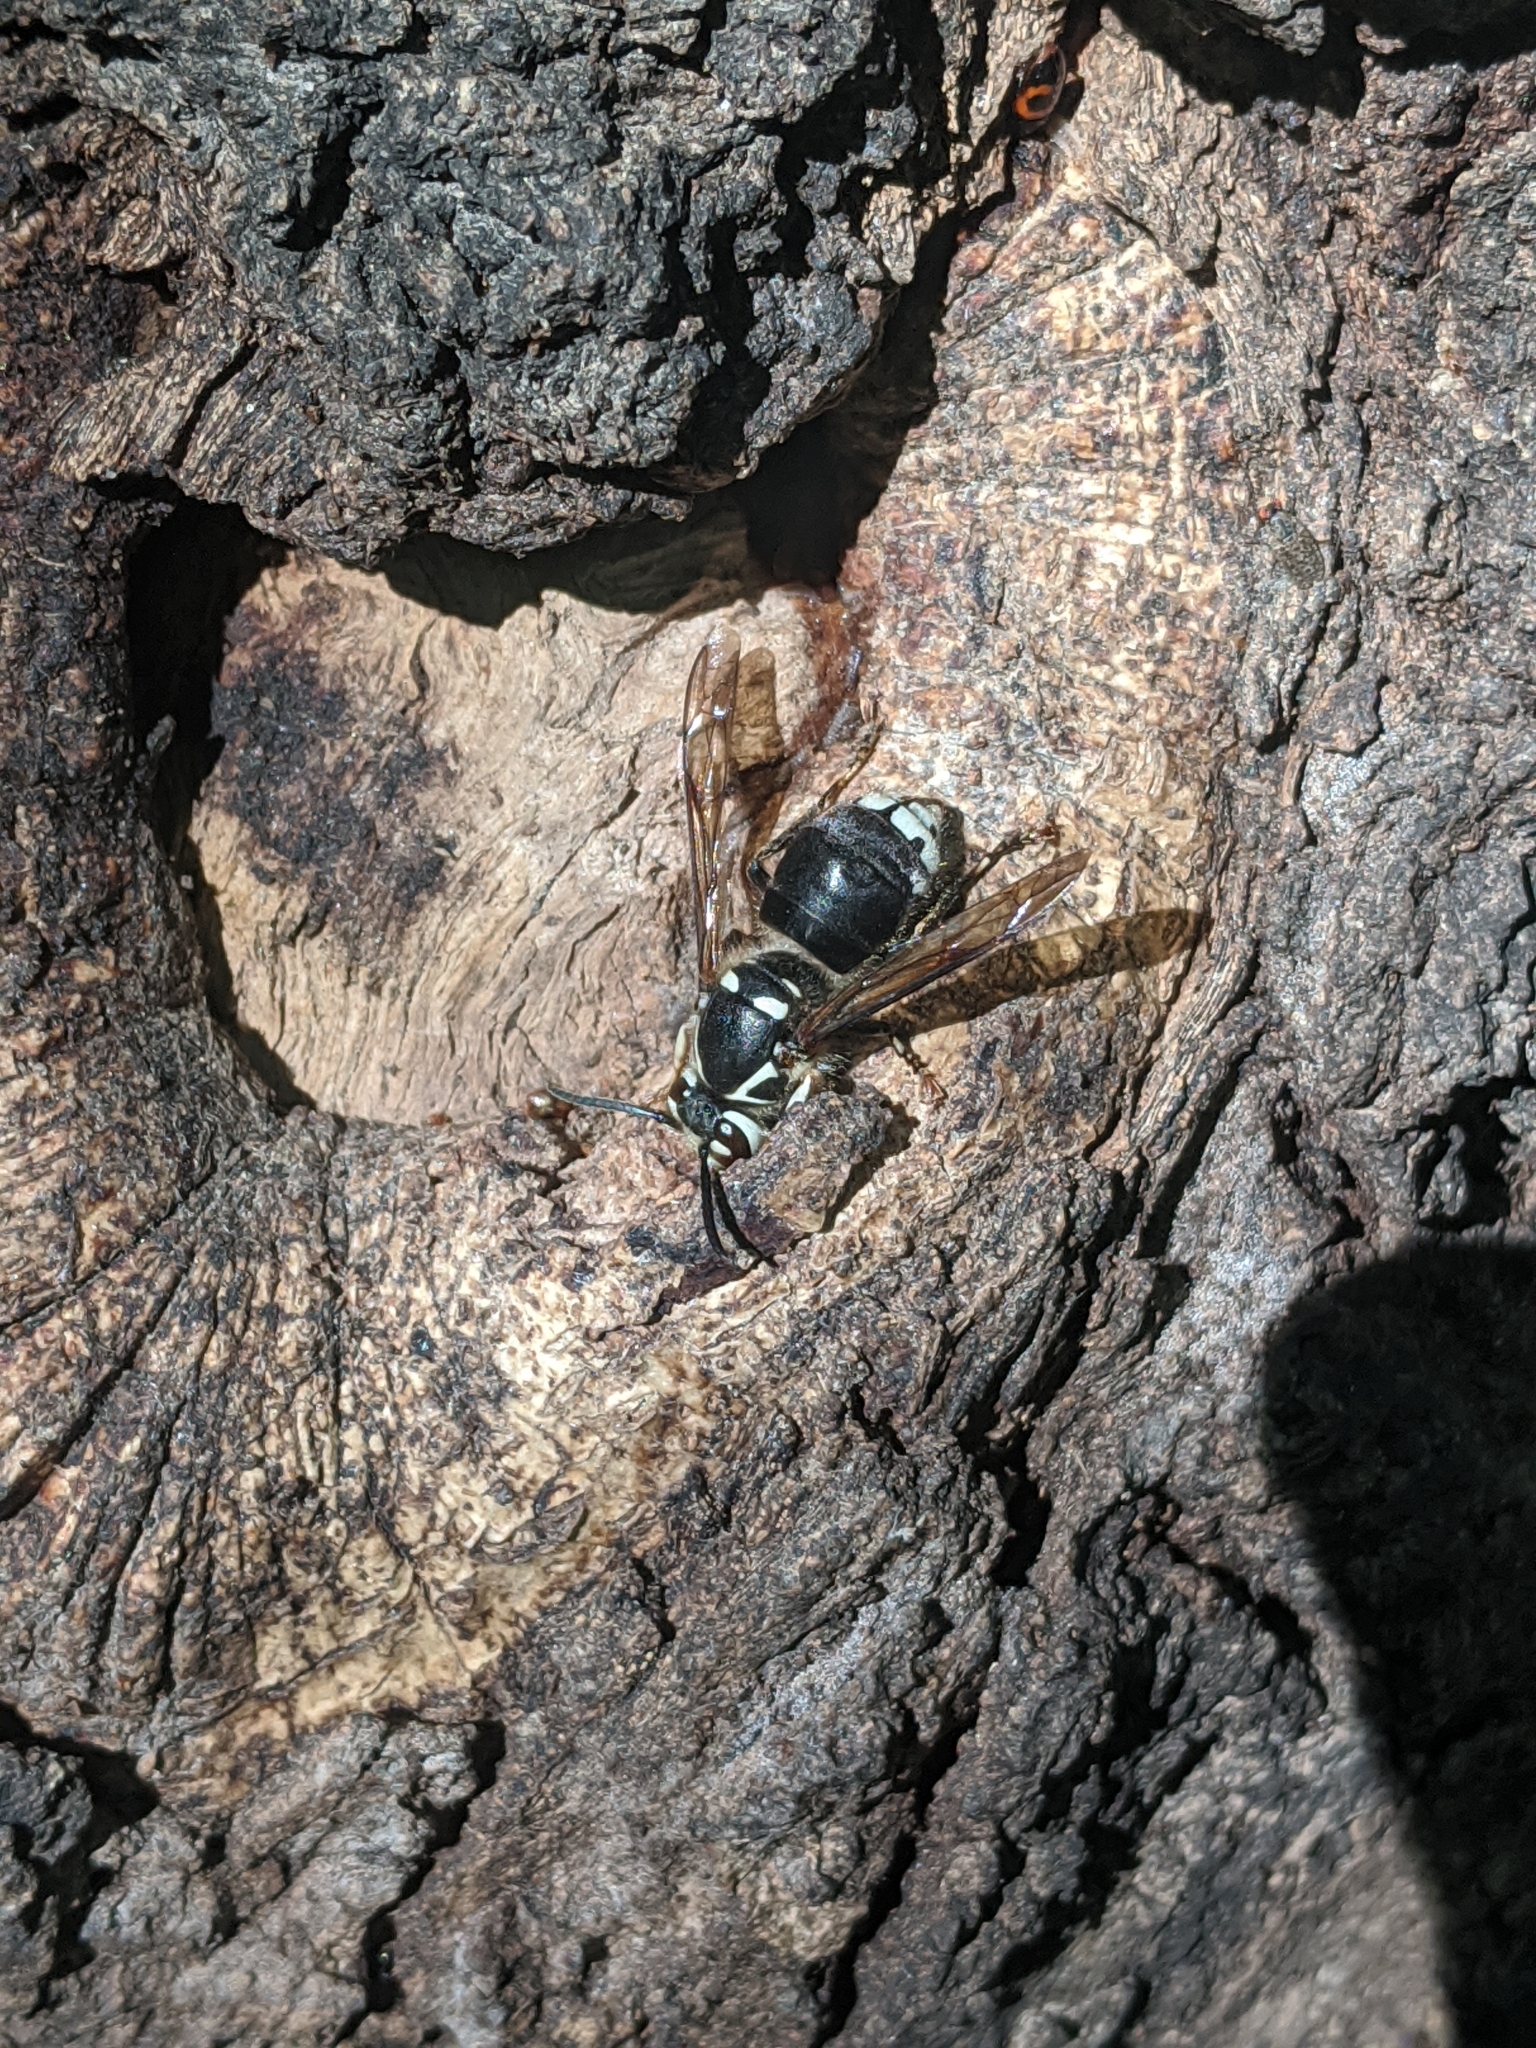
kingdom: Animalia
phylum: Arthropoda
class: Insecta
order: Hymenoptera
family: Vespidae
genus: Dolichovespula
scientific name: Dolichovespula maculata
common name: Bald-faced hornet
